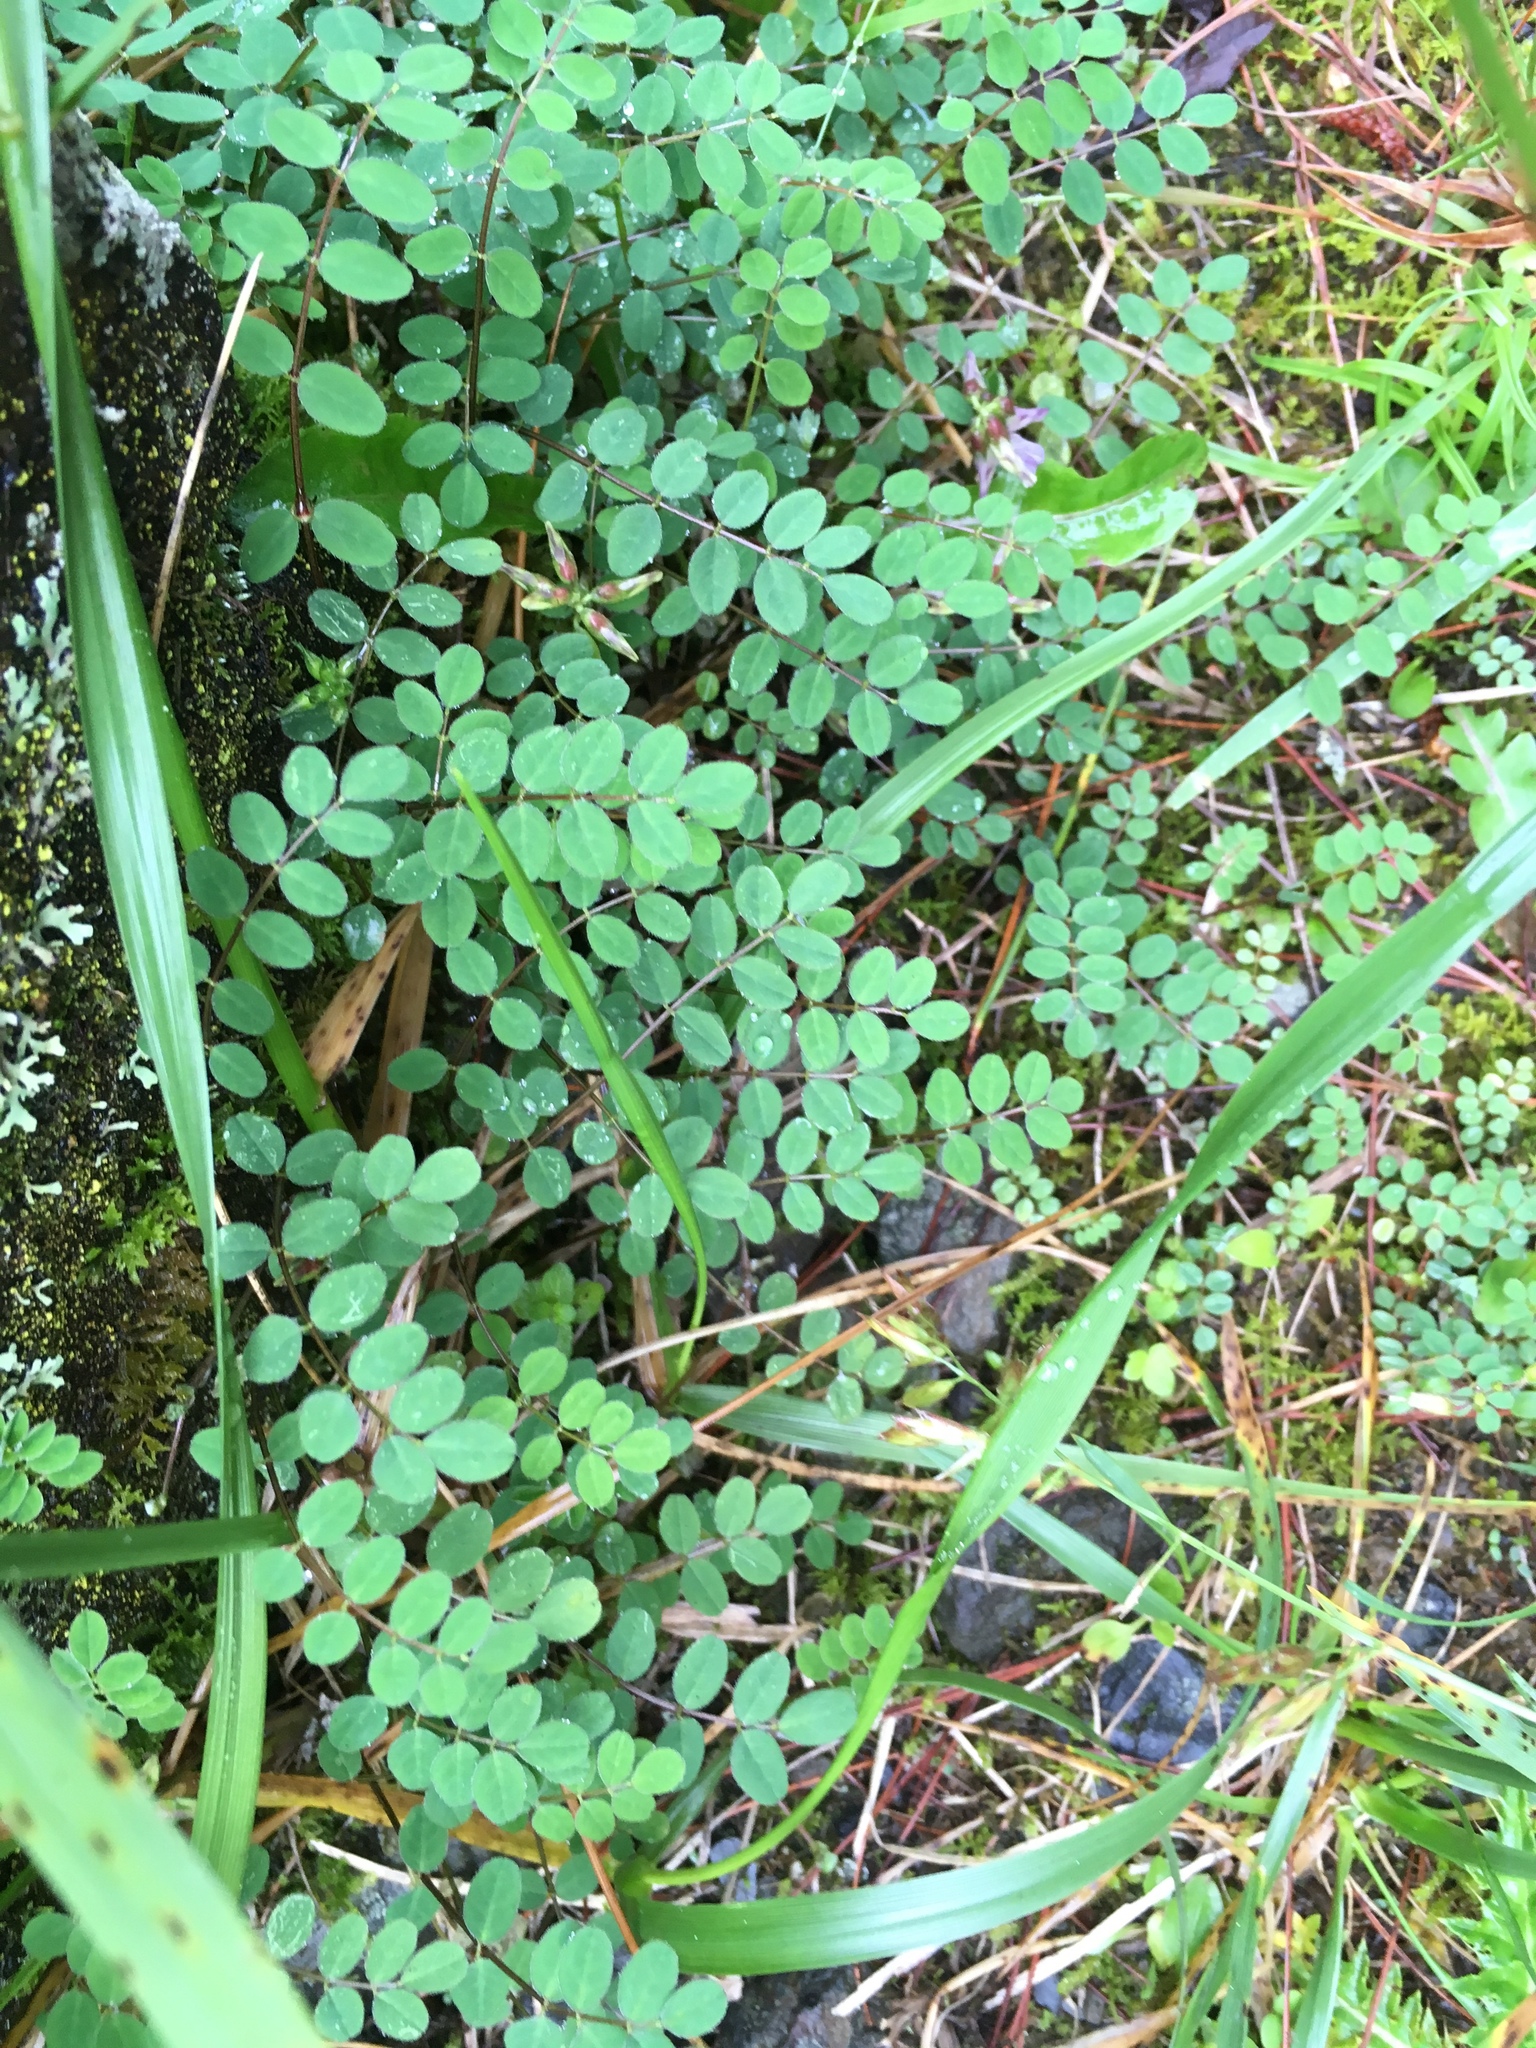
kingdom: Plantae
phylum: Tracheophyta
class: Magnoliopsida
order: Fabales
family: Fabaceae
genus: Astragalus
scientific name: Astragalus nokoensis
